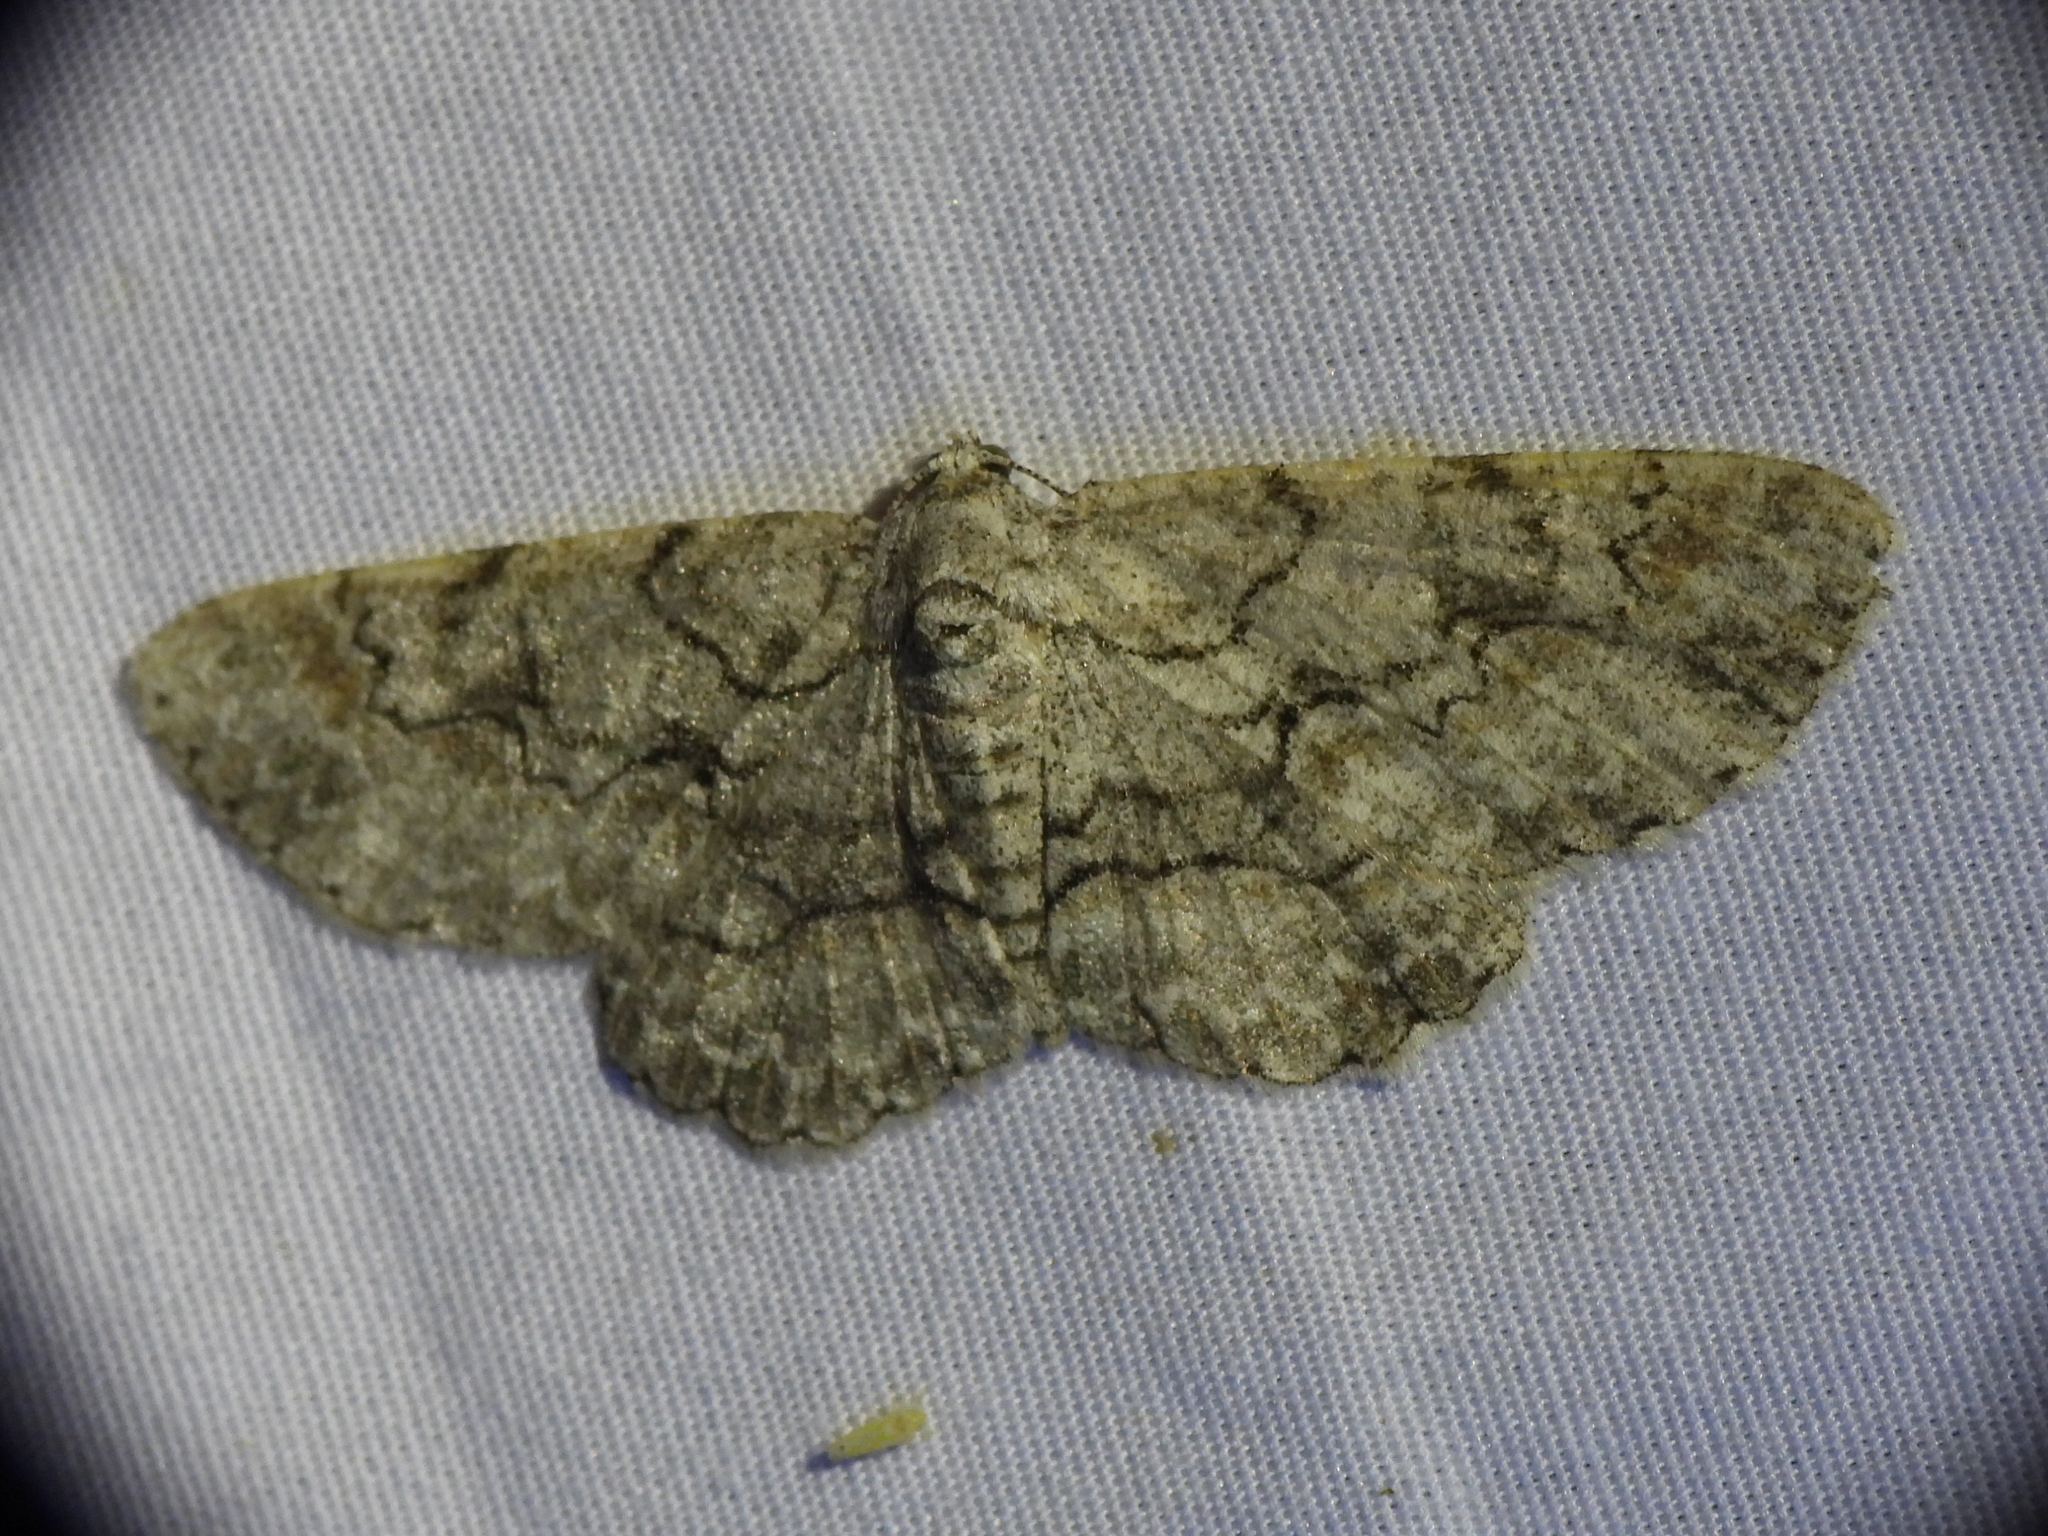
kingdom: Animalia
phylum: Arthropoda
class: Insecta
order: Lepidoptera
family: Geometridae
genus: Iridopsis
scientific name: Iridopsis defectaria
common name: Brown-shaded gray
